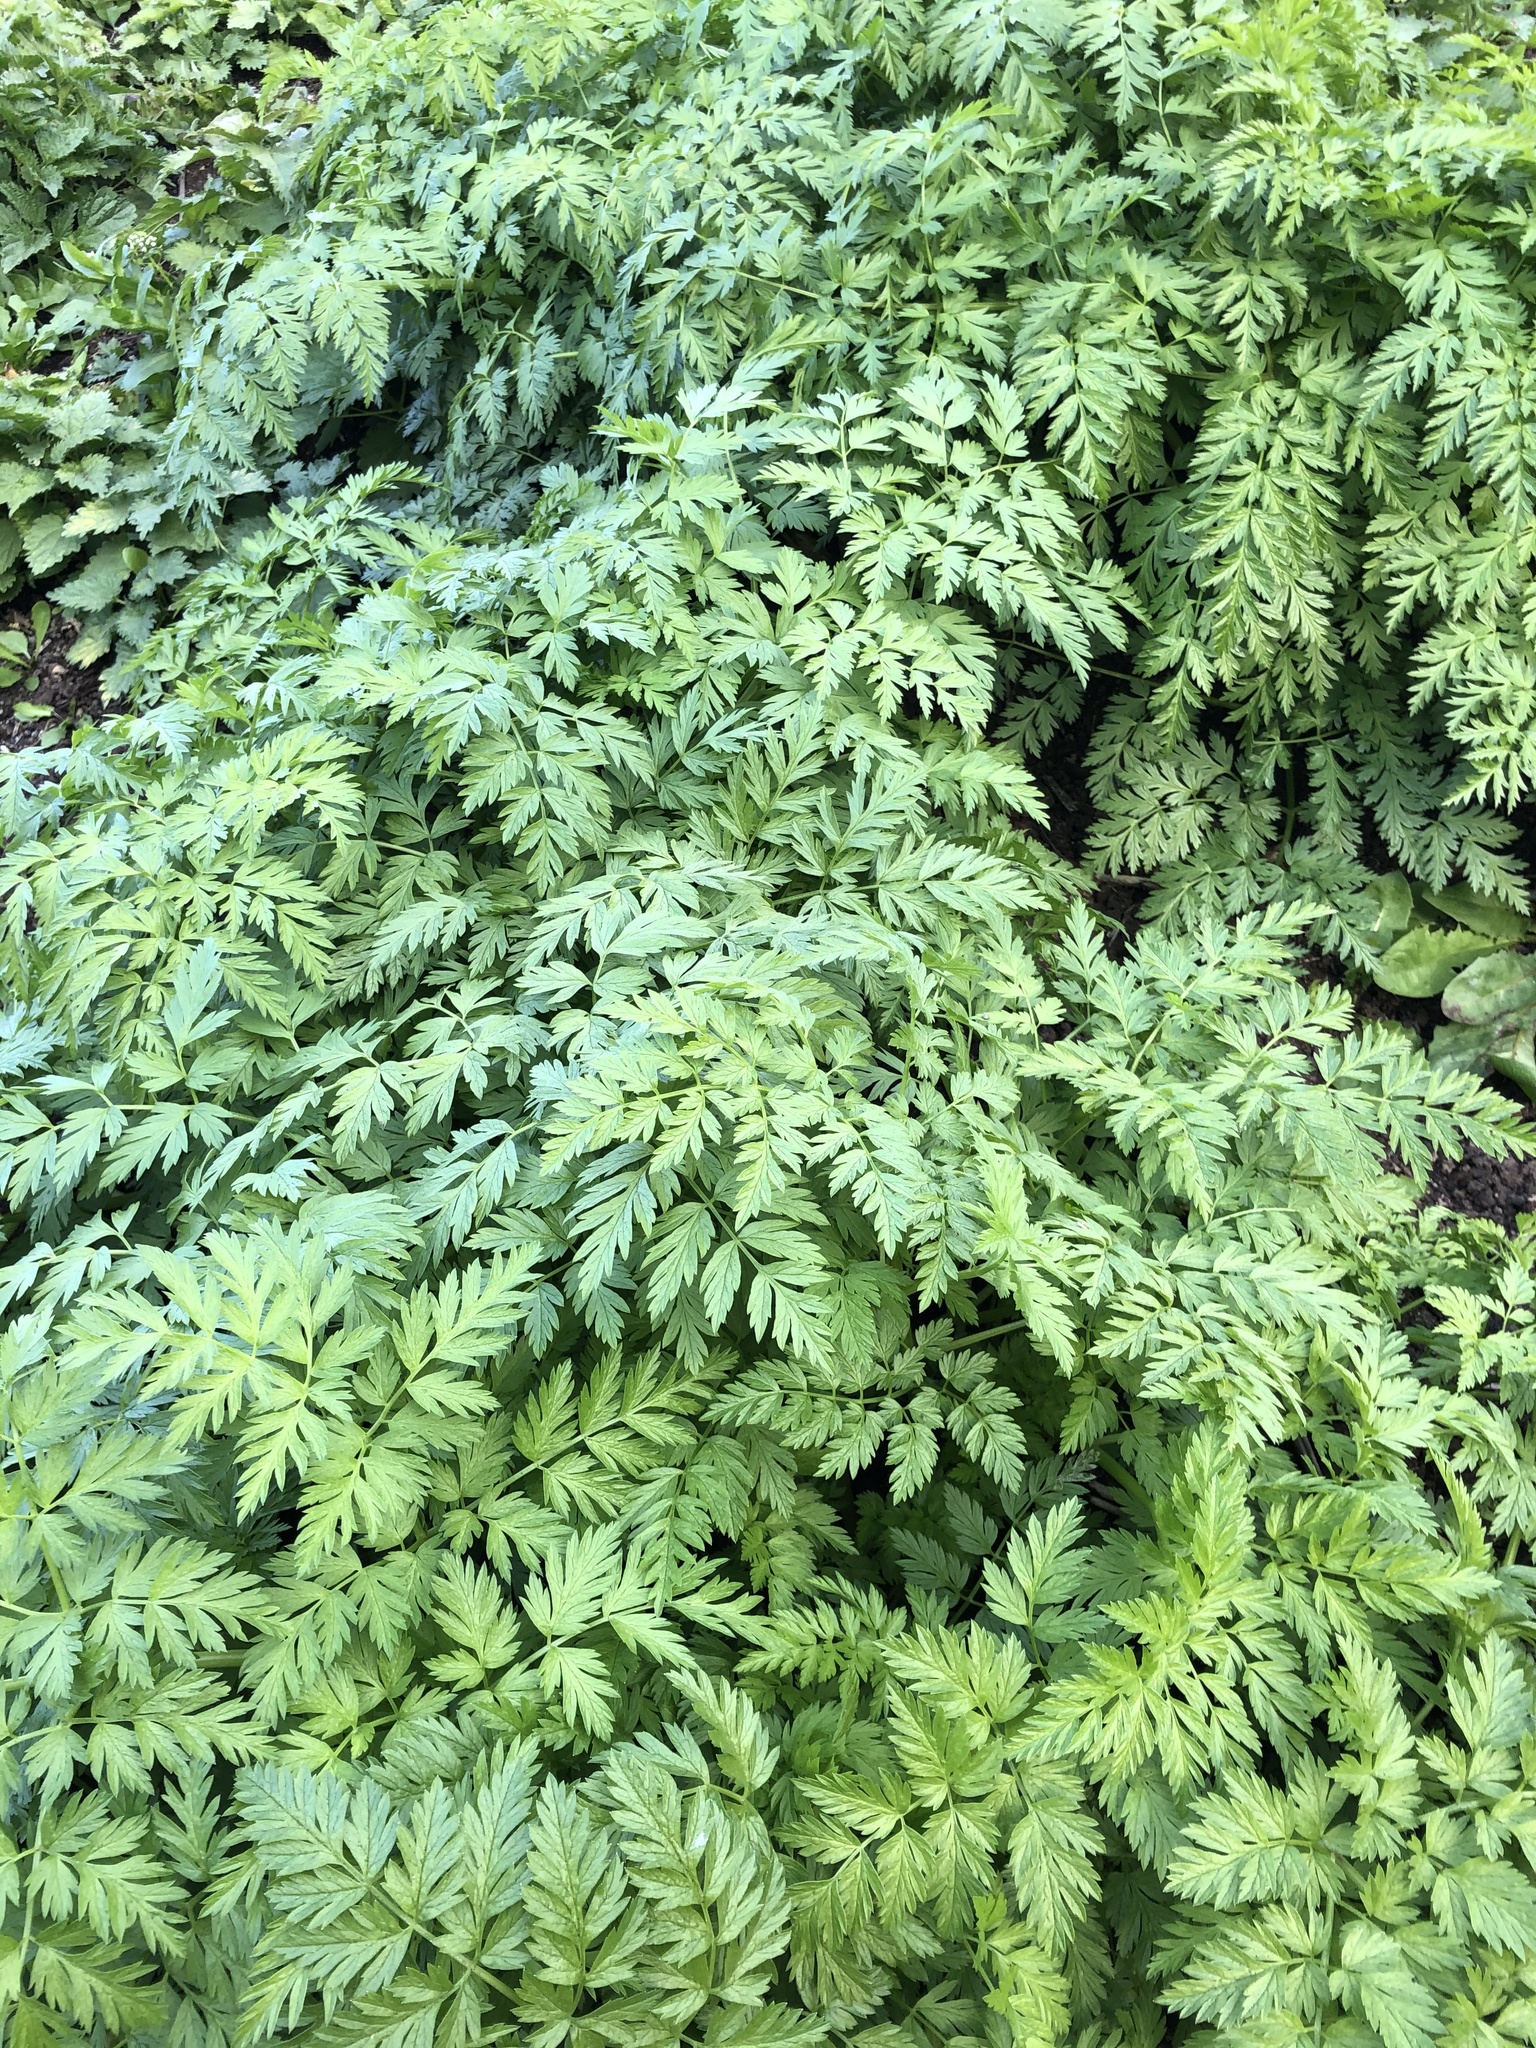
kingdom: Plantae
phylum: Tracheophyta
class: Magnoliopsida
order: Apiales
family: Apiaceae
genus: Anthriscus
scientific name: Anthriscus sylvestris
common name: Cow parsley
